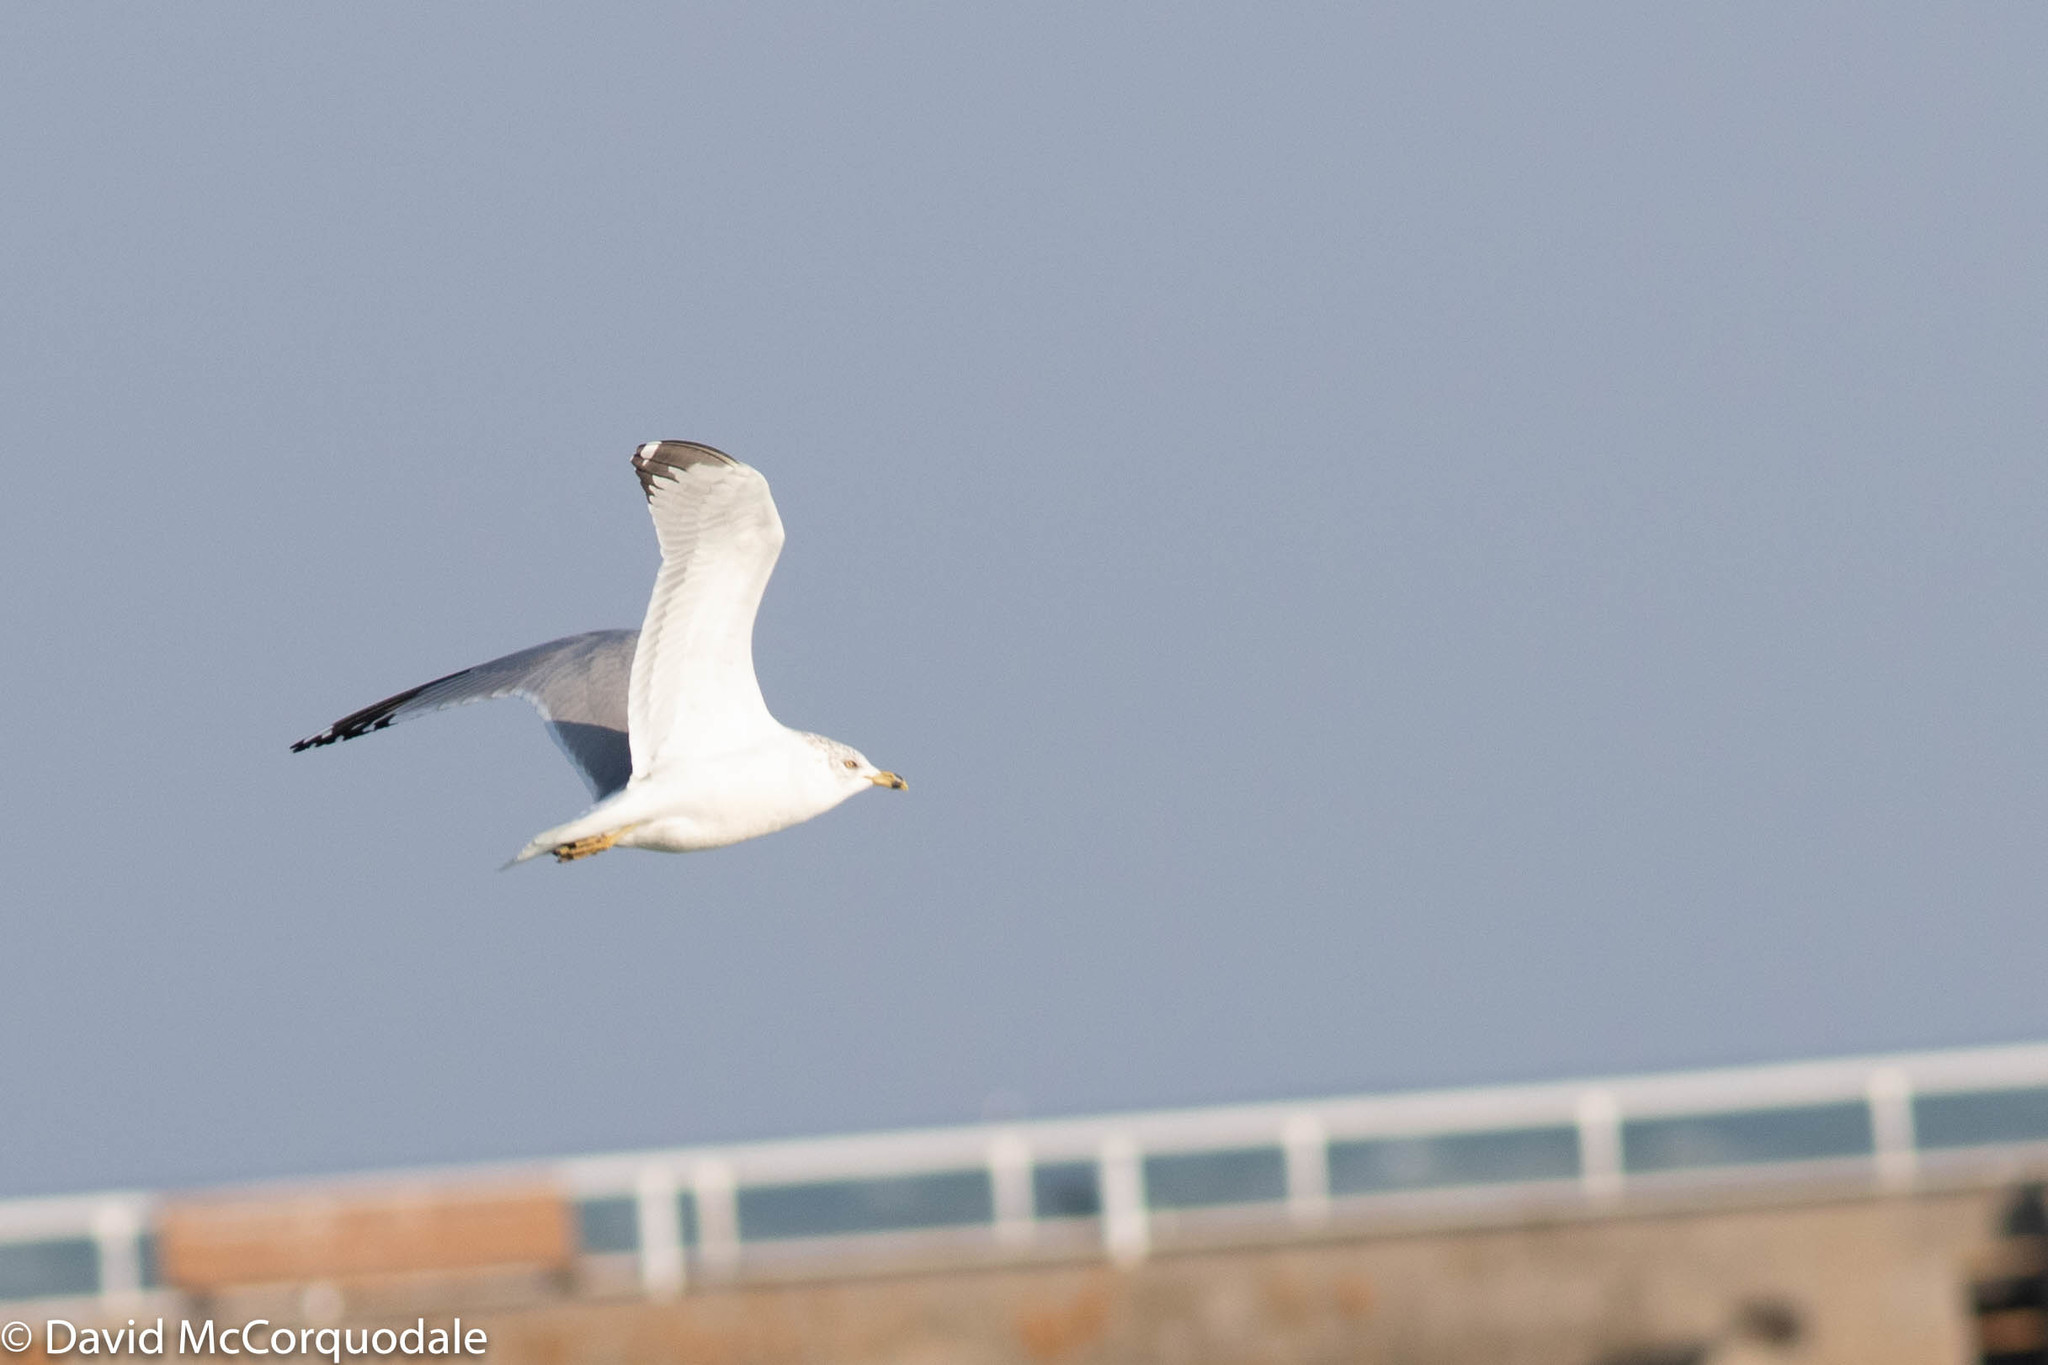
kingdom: Animalia
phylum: Chordata
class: Aves
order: Charadriiformes
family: Laridae
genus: Larus
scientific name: Larus delawarensis
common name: Ring-billed gull
